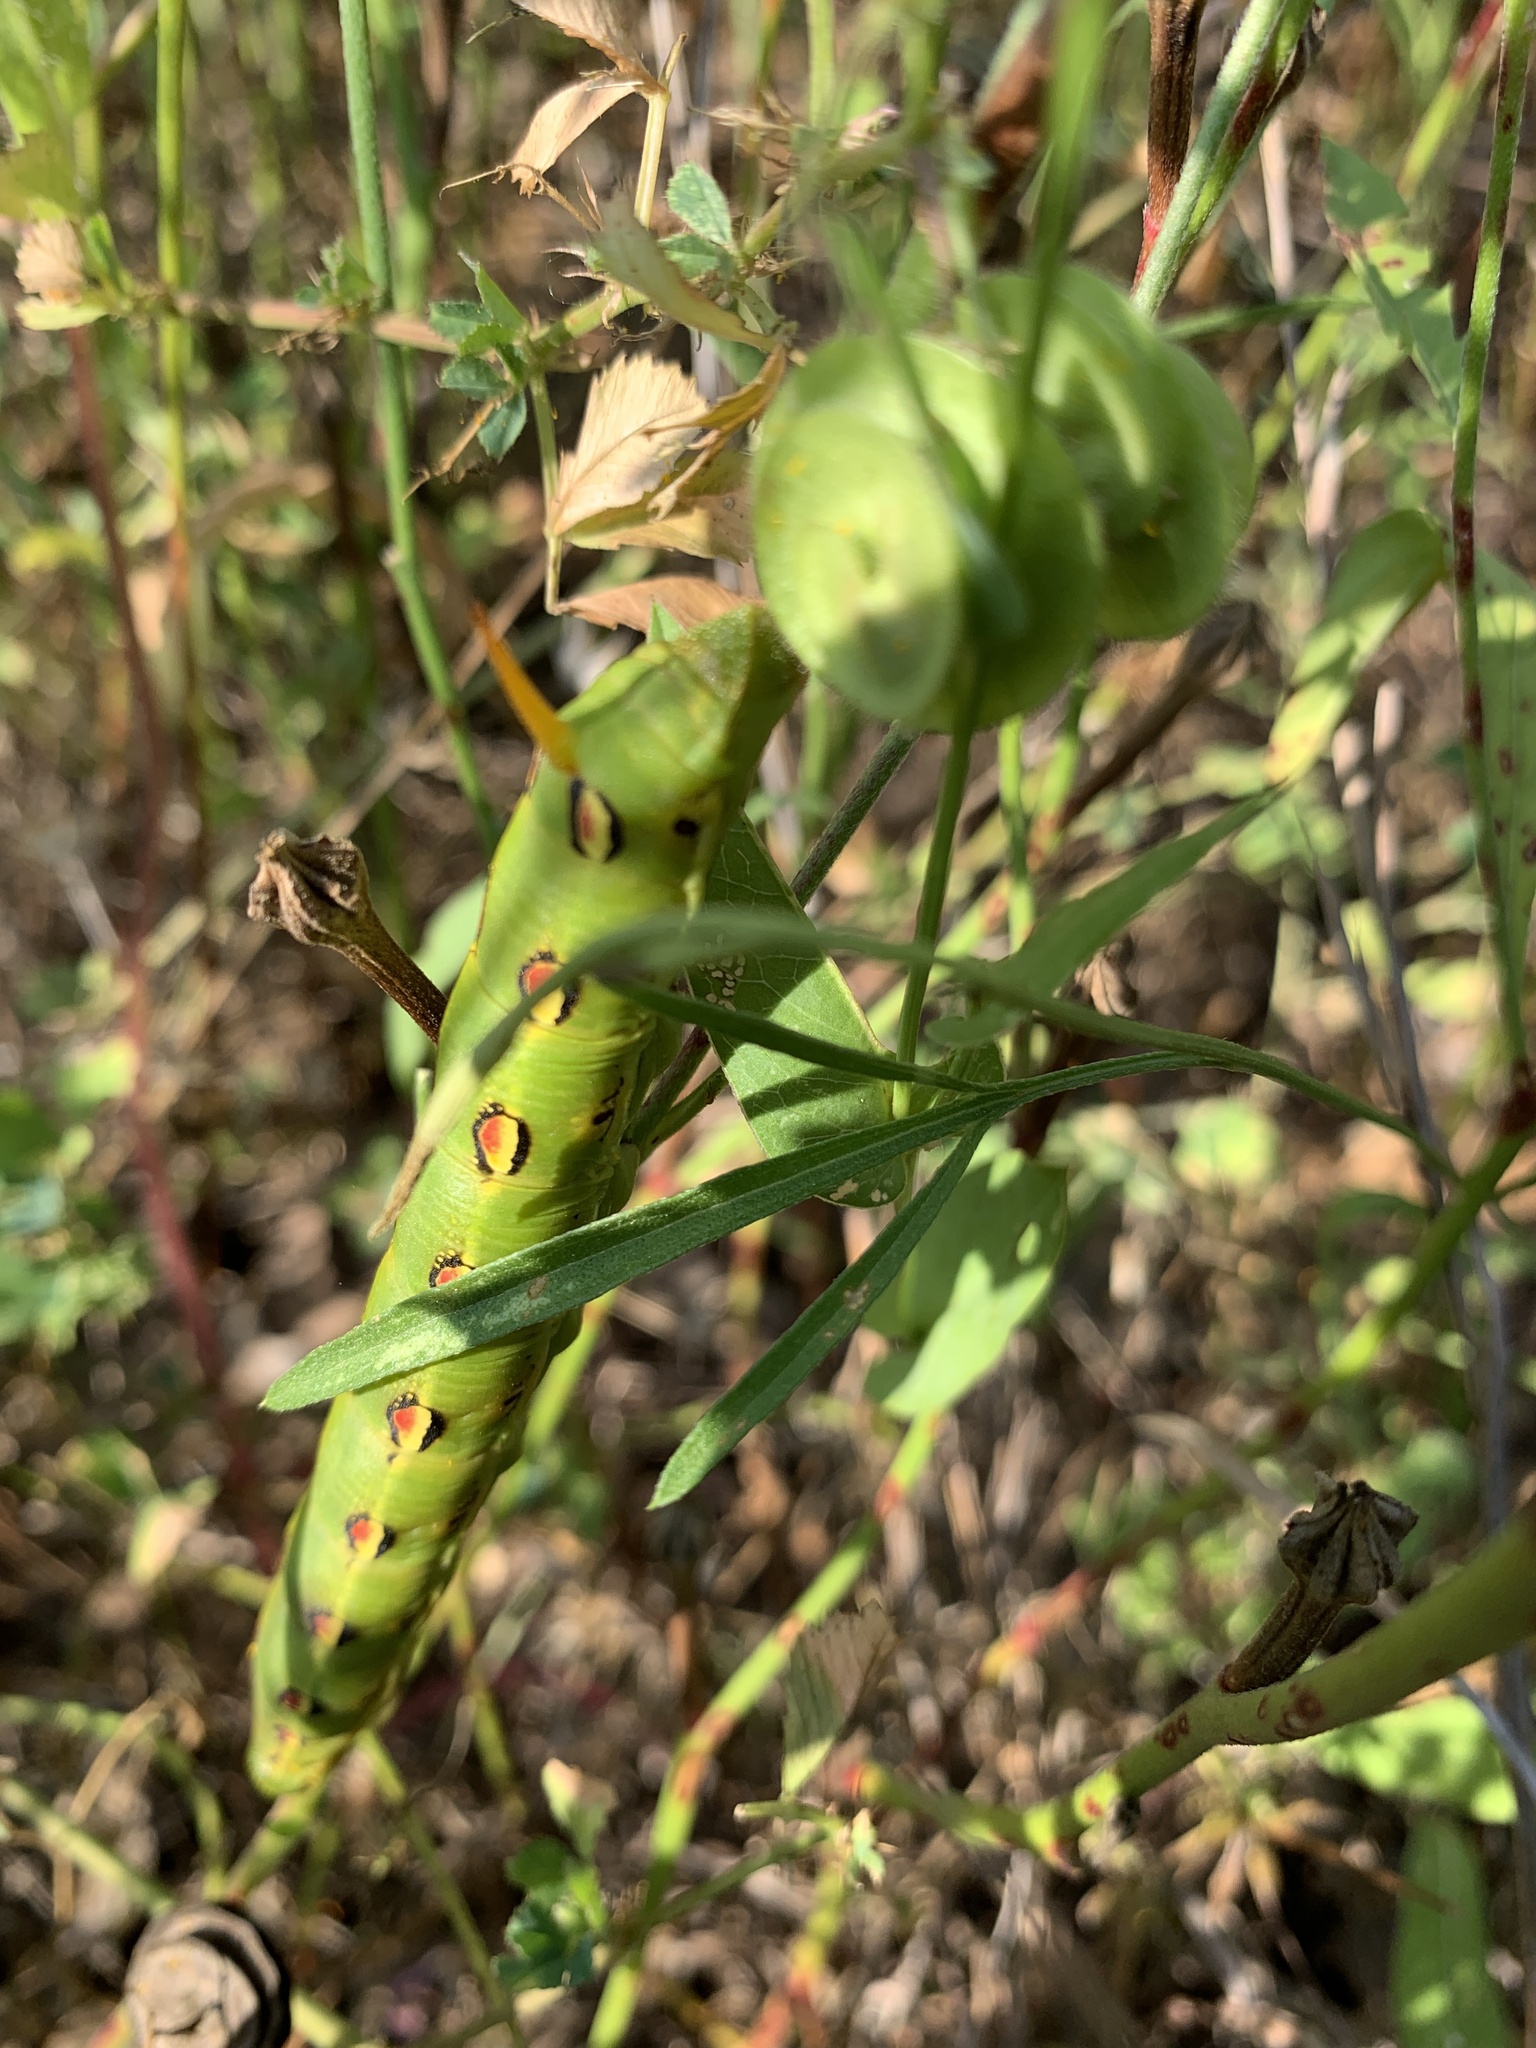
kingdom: Animalia
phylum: Arthropoda
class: Insecta
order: Lepidoptera
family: Sphingidae
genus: Hyles
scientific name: Hyles lineata
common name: White-lined sphinx
